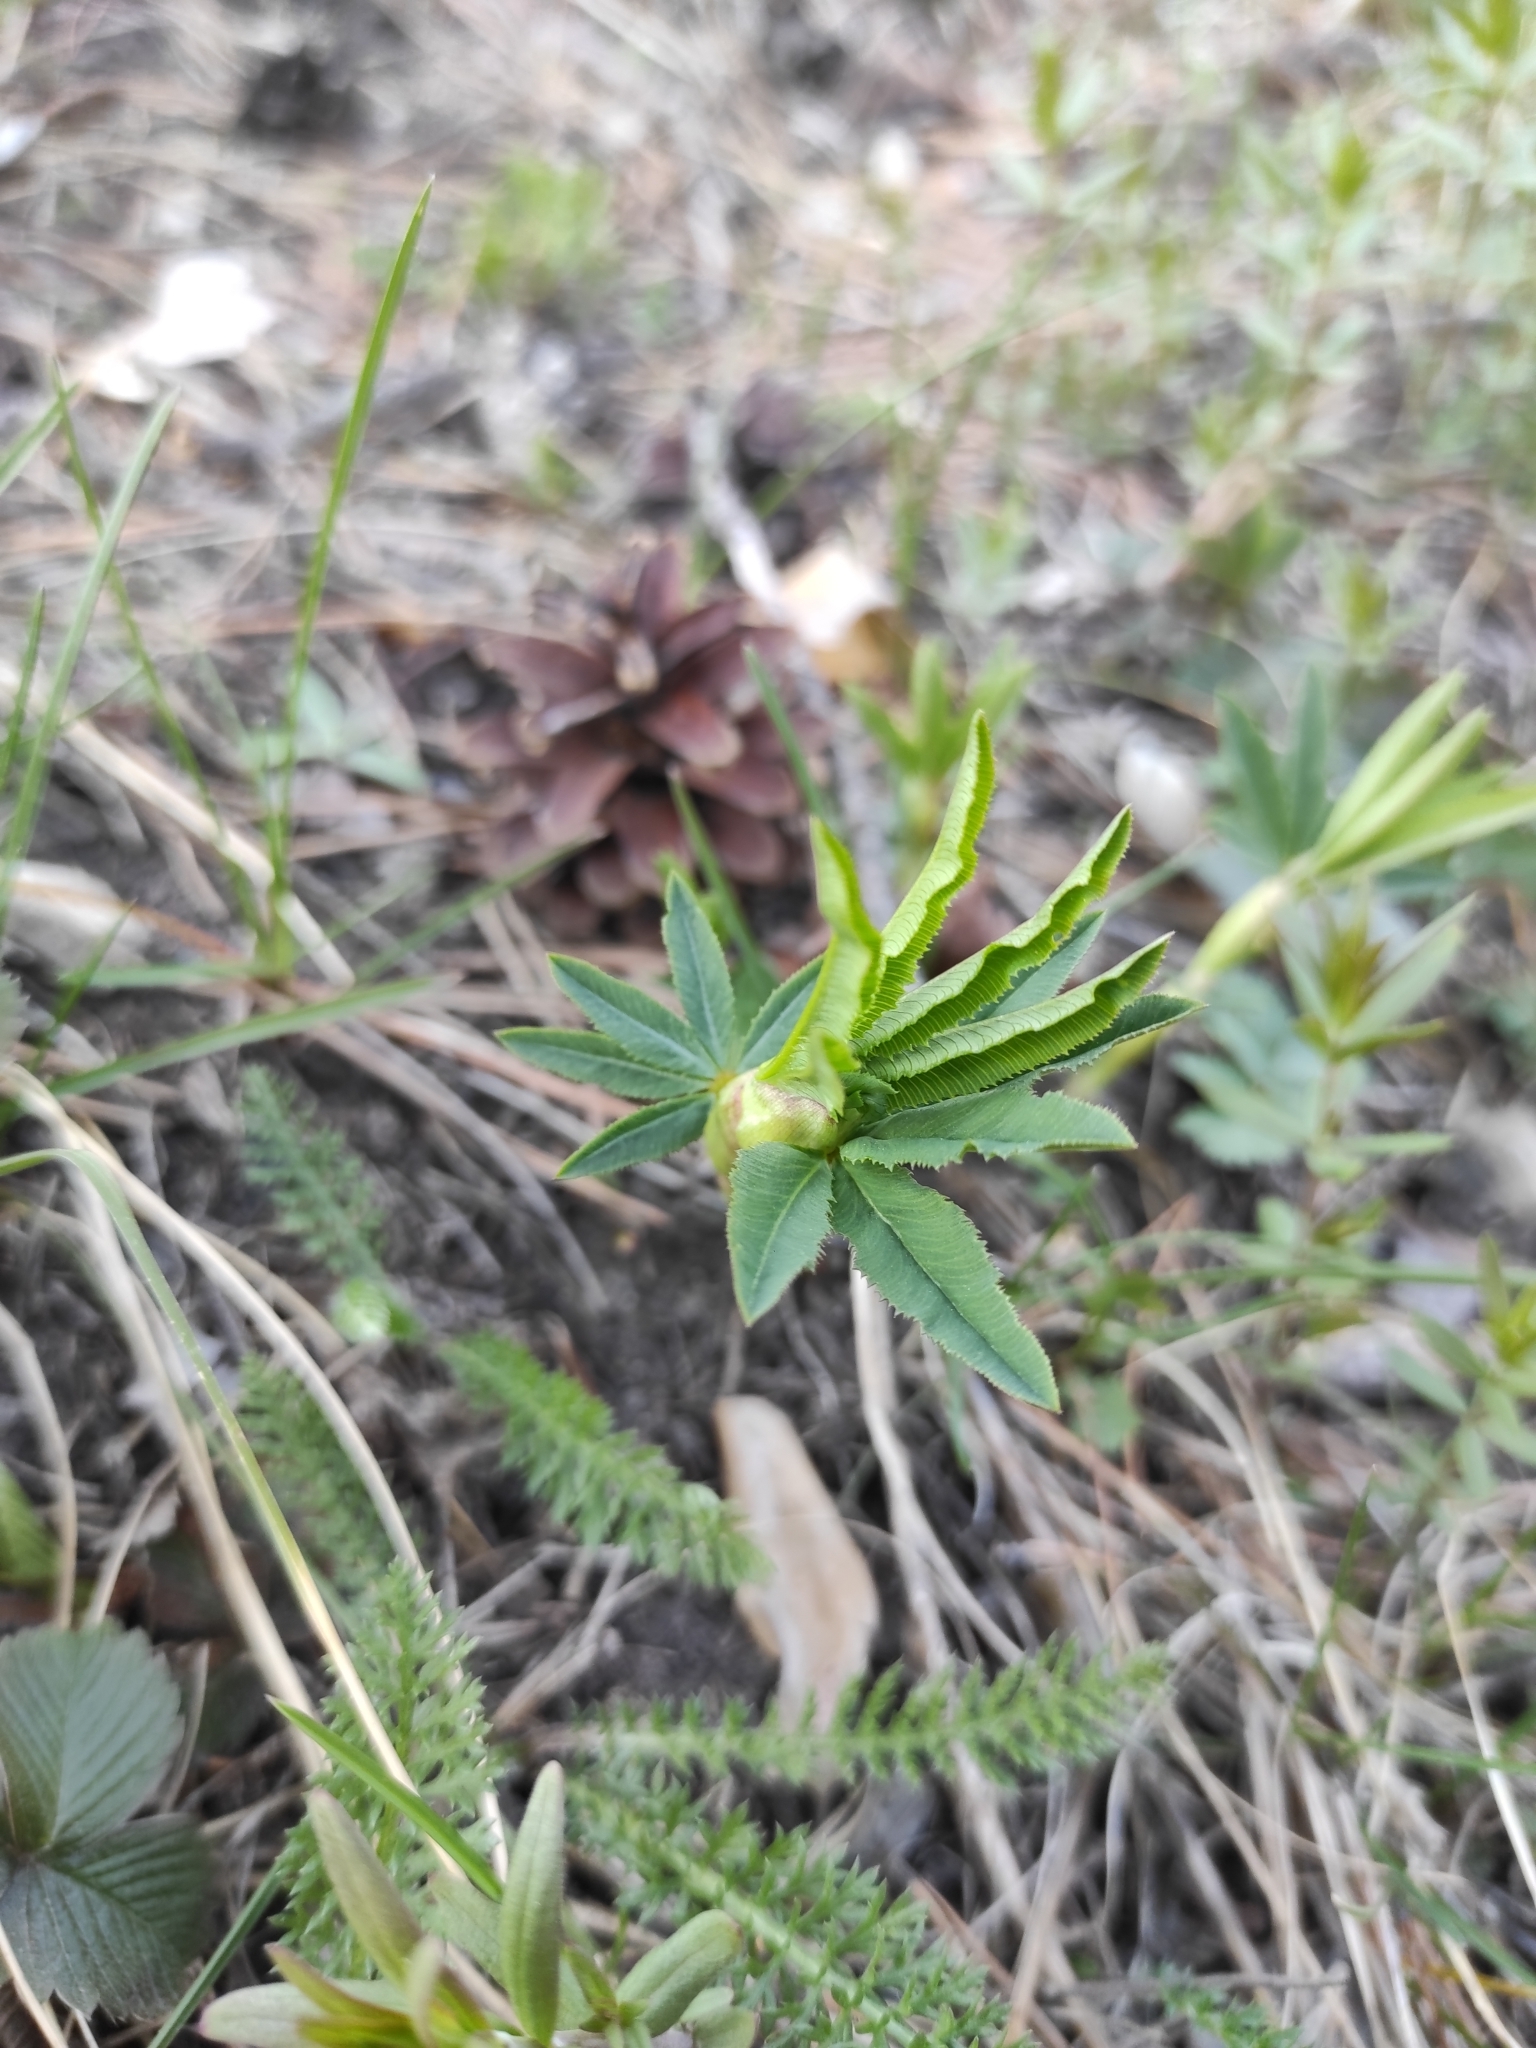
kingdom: Plantae
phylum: Tracheophyta
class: Magnoliopsida
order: Fabales
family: Fabaceae
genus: Trifolium
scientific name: Trifolium lupinaster
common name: Lupine clover
